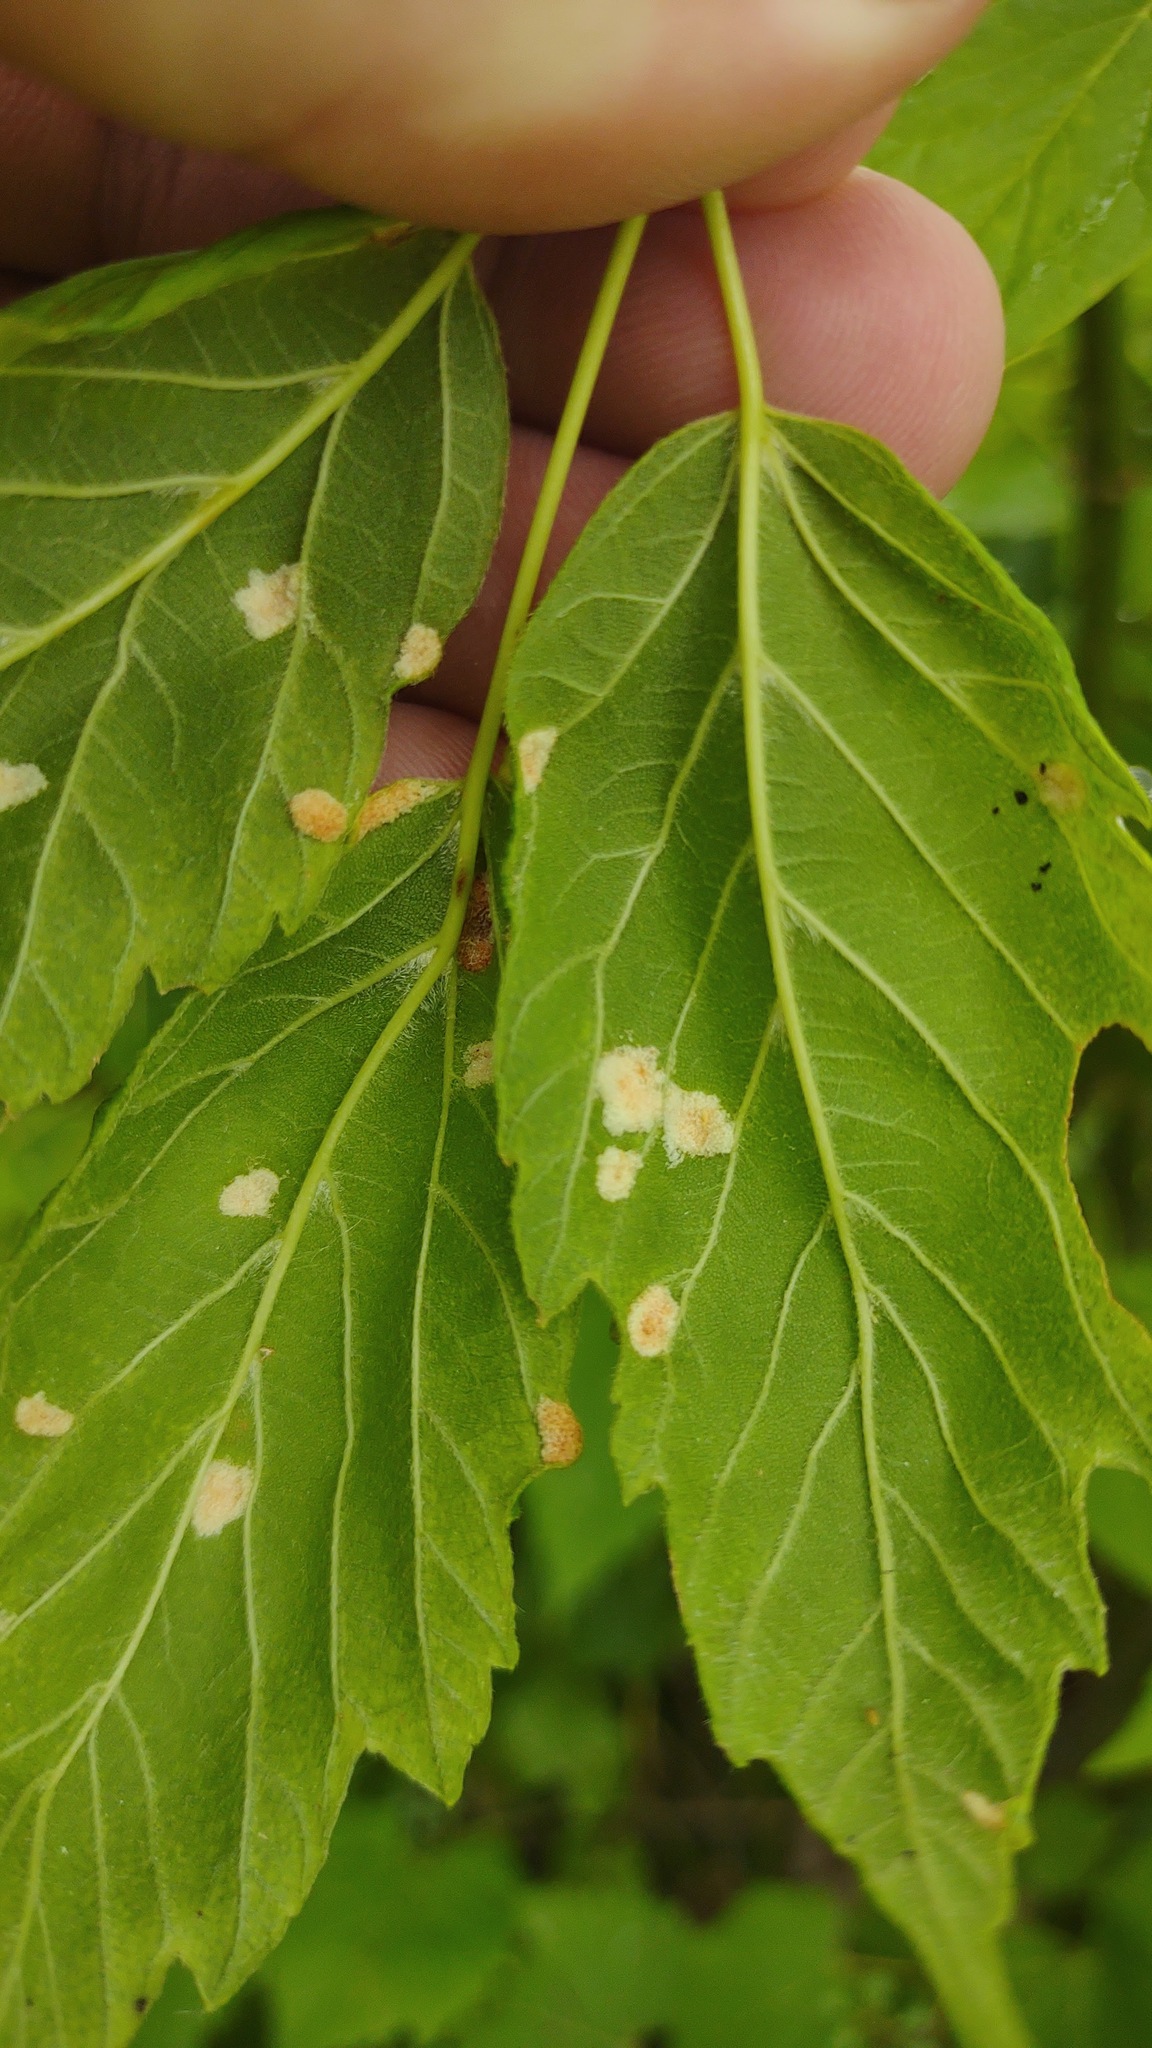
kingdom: Animalia
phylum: Arthropoda
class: Arachnida
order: Trombidiformes
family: Eriophyidae
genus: Aceria
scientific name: Aceria
